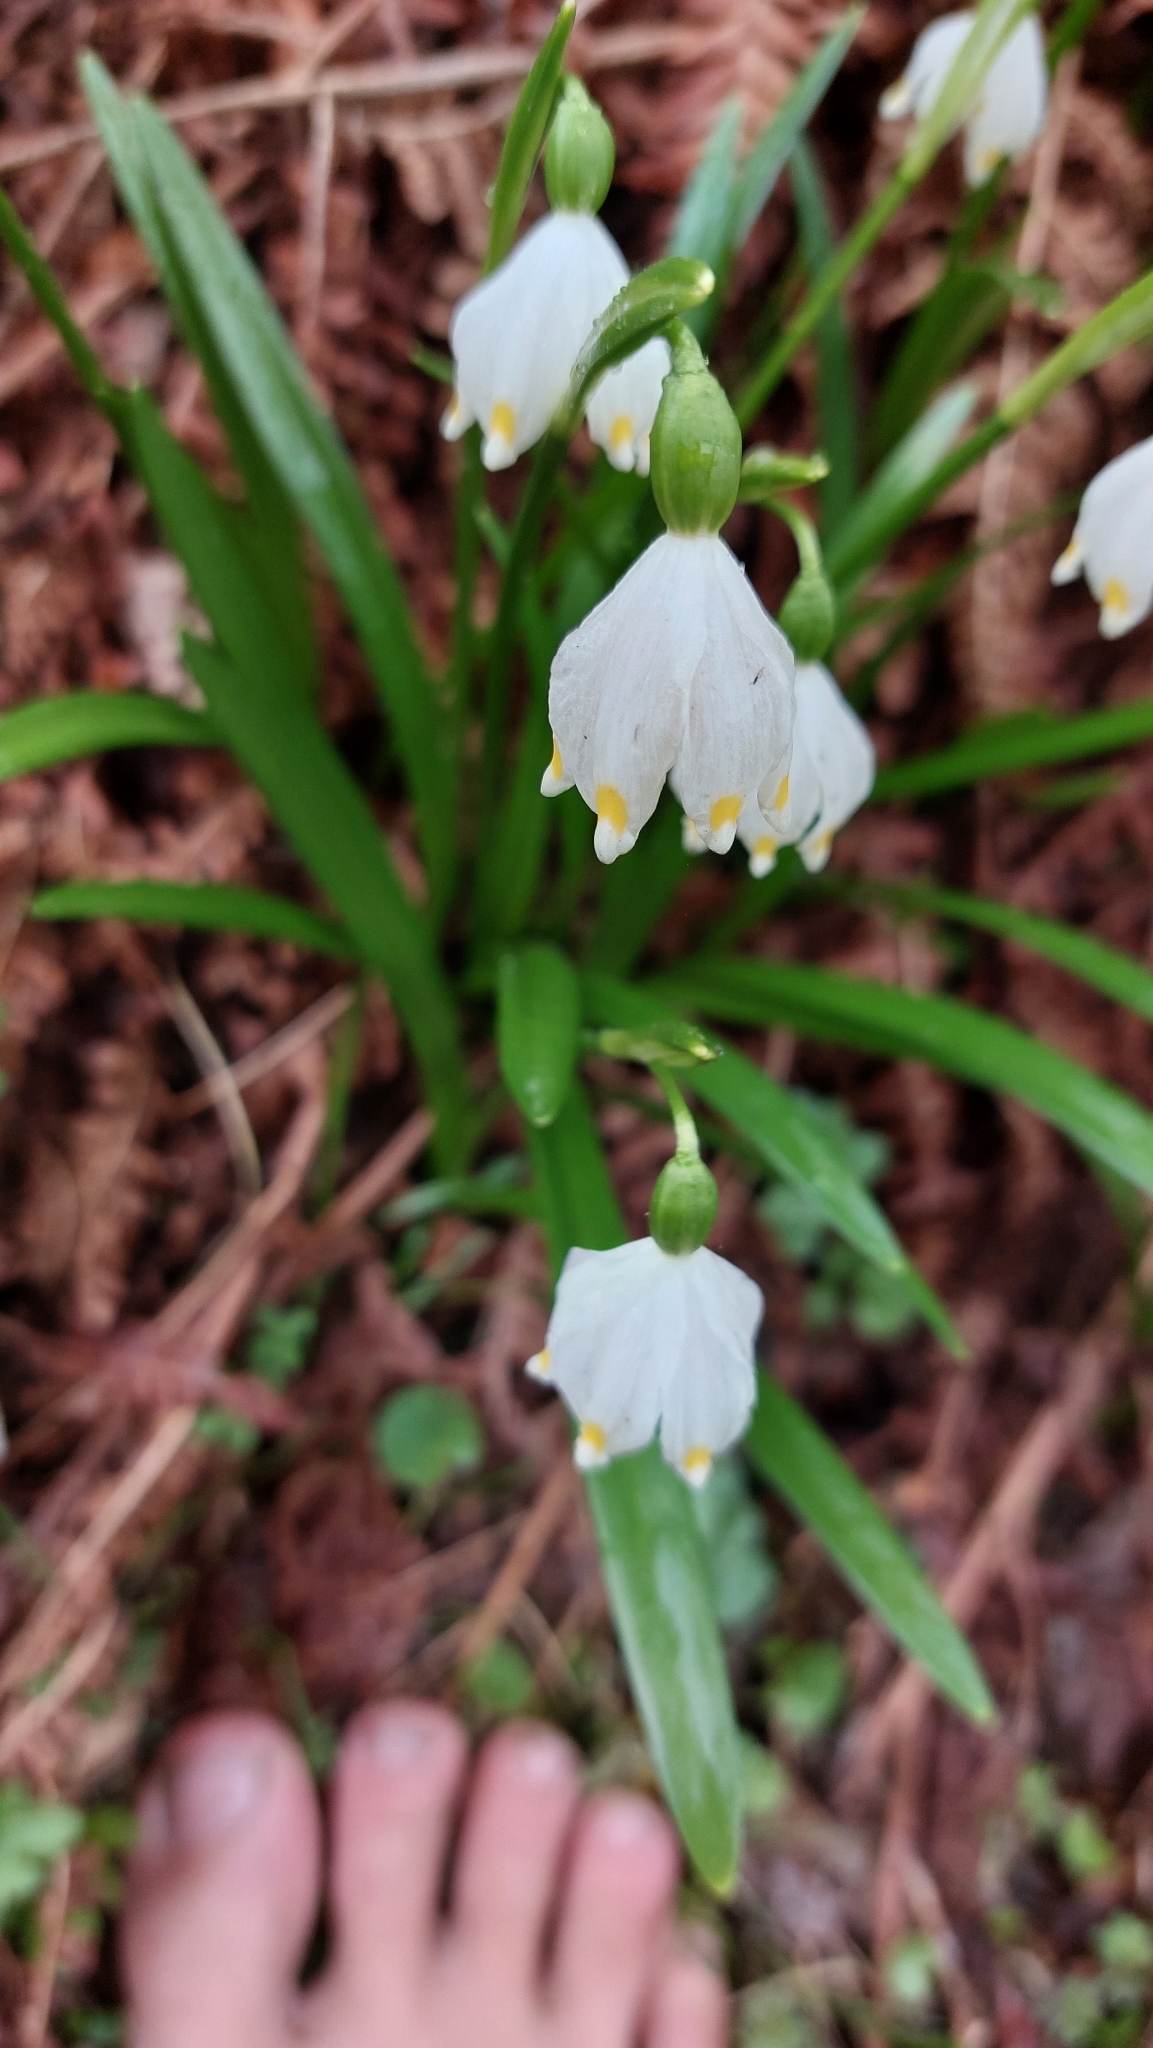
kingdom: Plantae
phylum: Tracheophyta
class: Liliopsida
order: Asparagales
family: Amaryllidaceae
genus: Leucojum
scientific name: Leucojum vernum
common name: Spring snowflake
